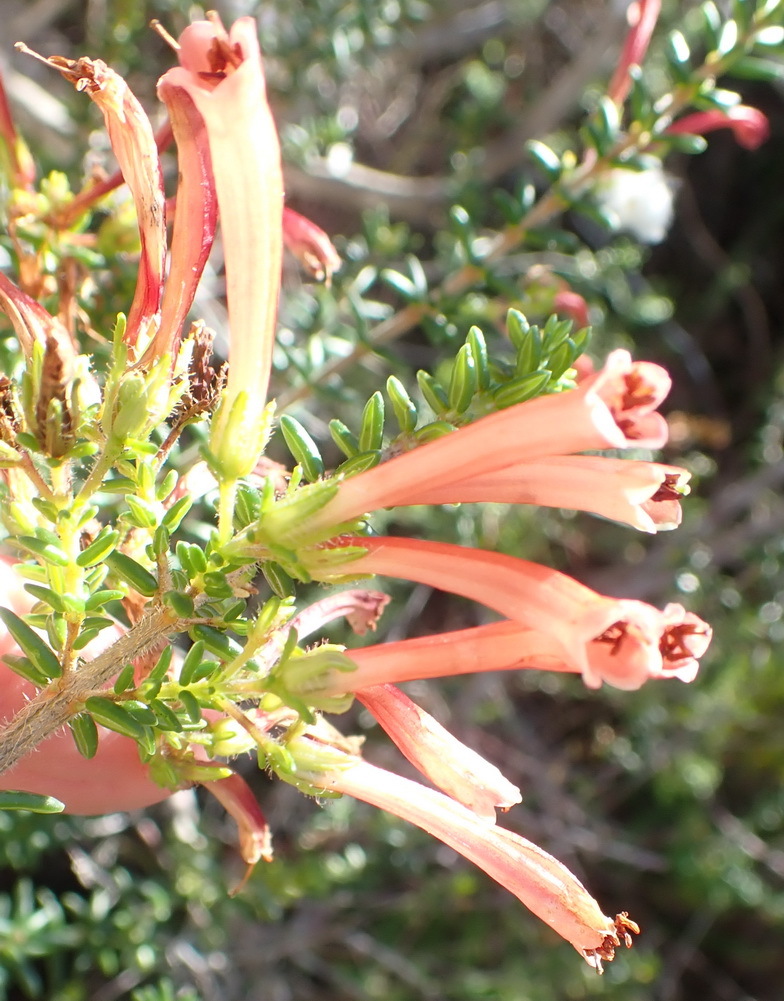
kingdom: Plantae
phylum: Tracheophyta
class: Magnoliopsida
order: Ericales
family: Ericaceae
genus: Erica
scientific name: Erica glandulosa
